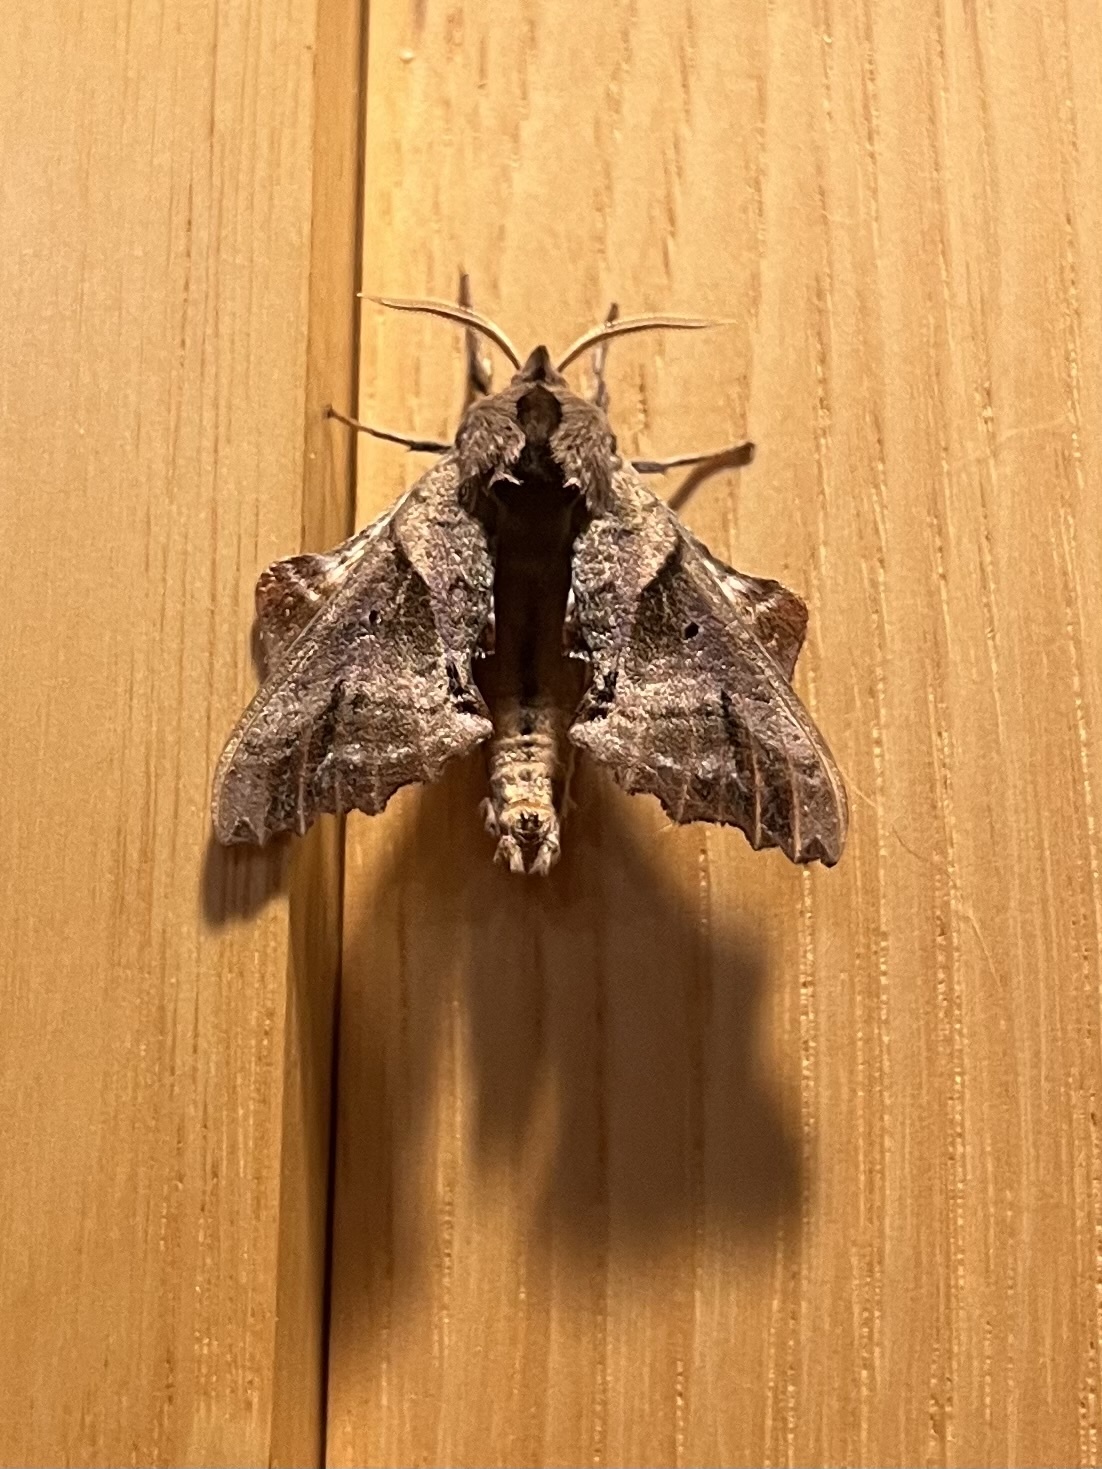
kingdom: Animalia
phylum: Arthropoda
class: Insecta
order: Lepidoptera
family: Sphingidae
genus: Paonias
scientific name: Paonias excaecata
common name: Blind-eyed sphinx
